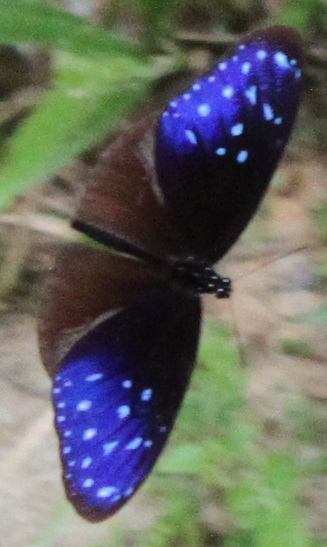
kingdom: Animalia
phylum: Arthropoda
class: Insecta
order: Lepidoptera
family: Nymphalidae
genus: Euploea
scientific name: Euploea mulciber
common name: Striped blue crow butterfly
